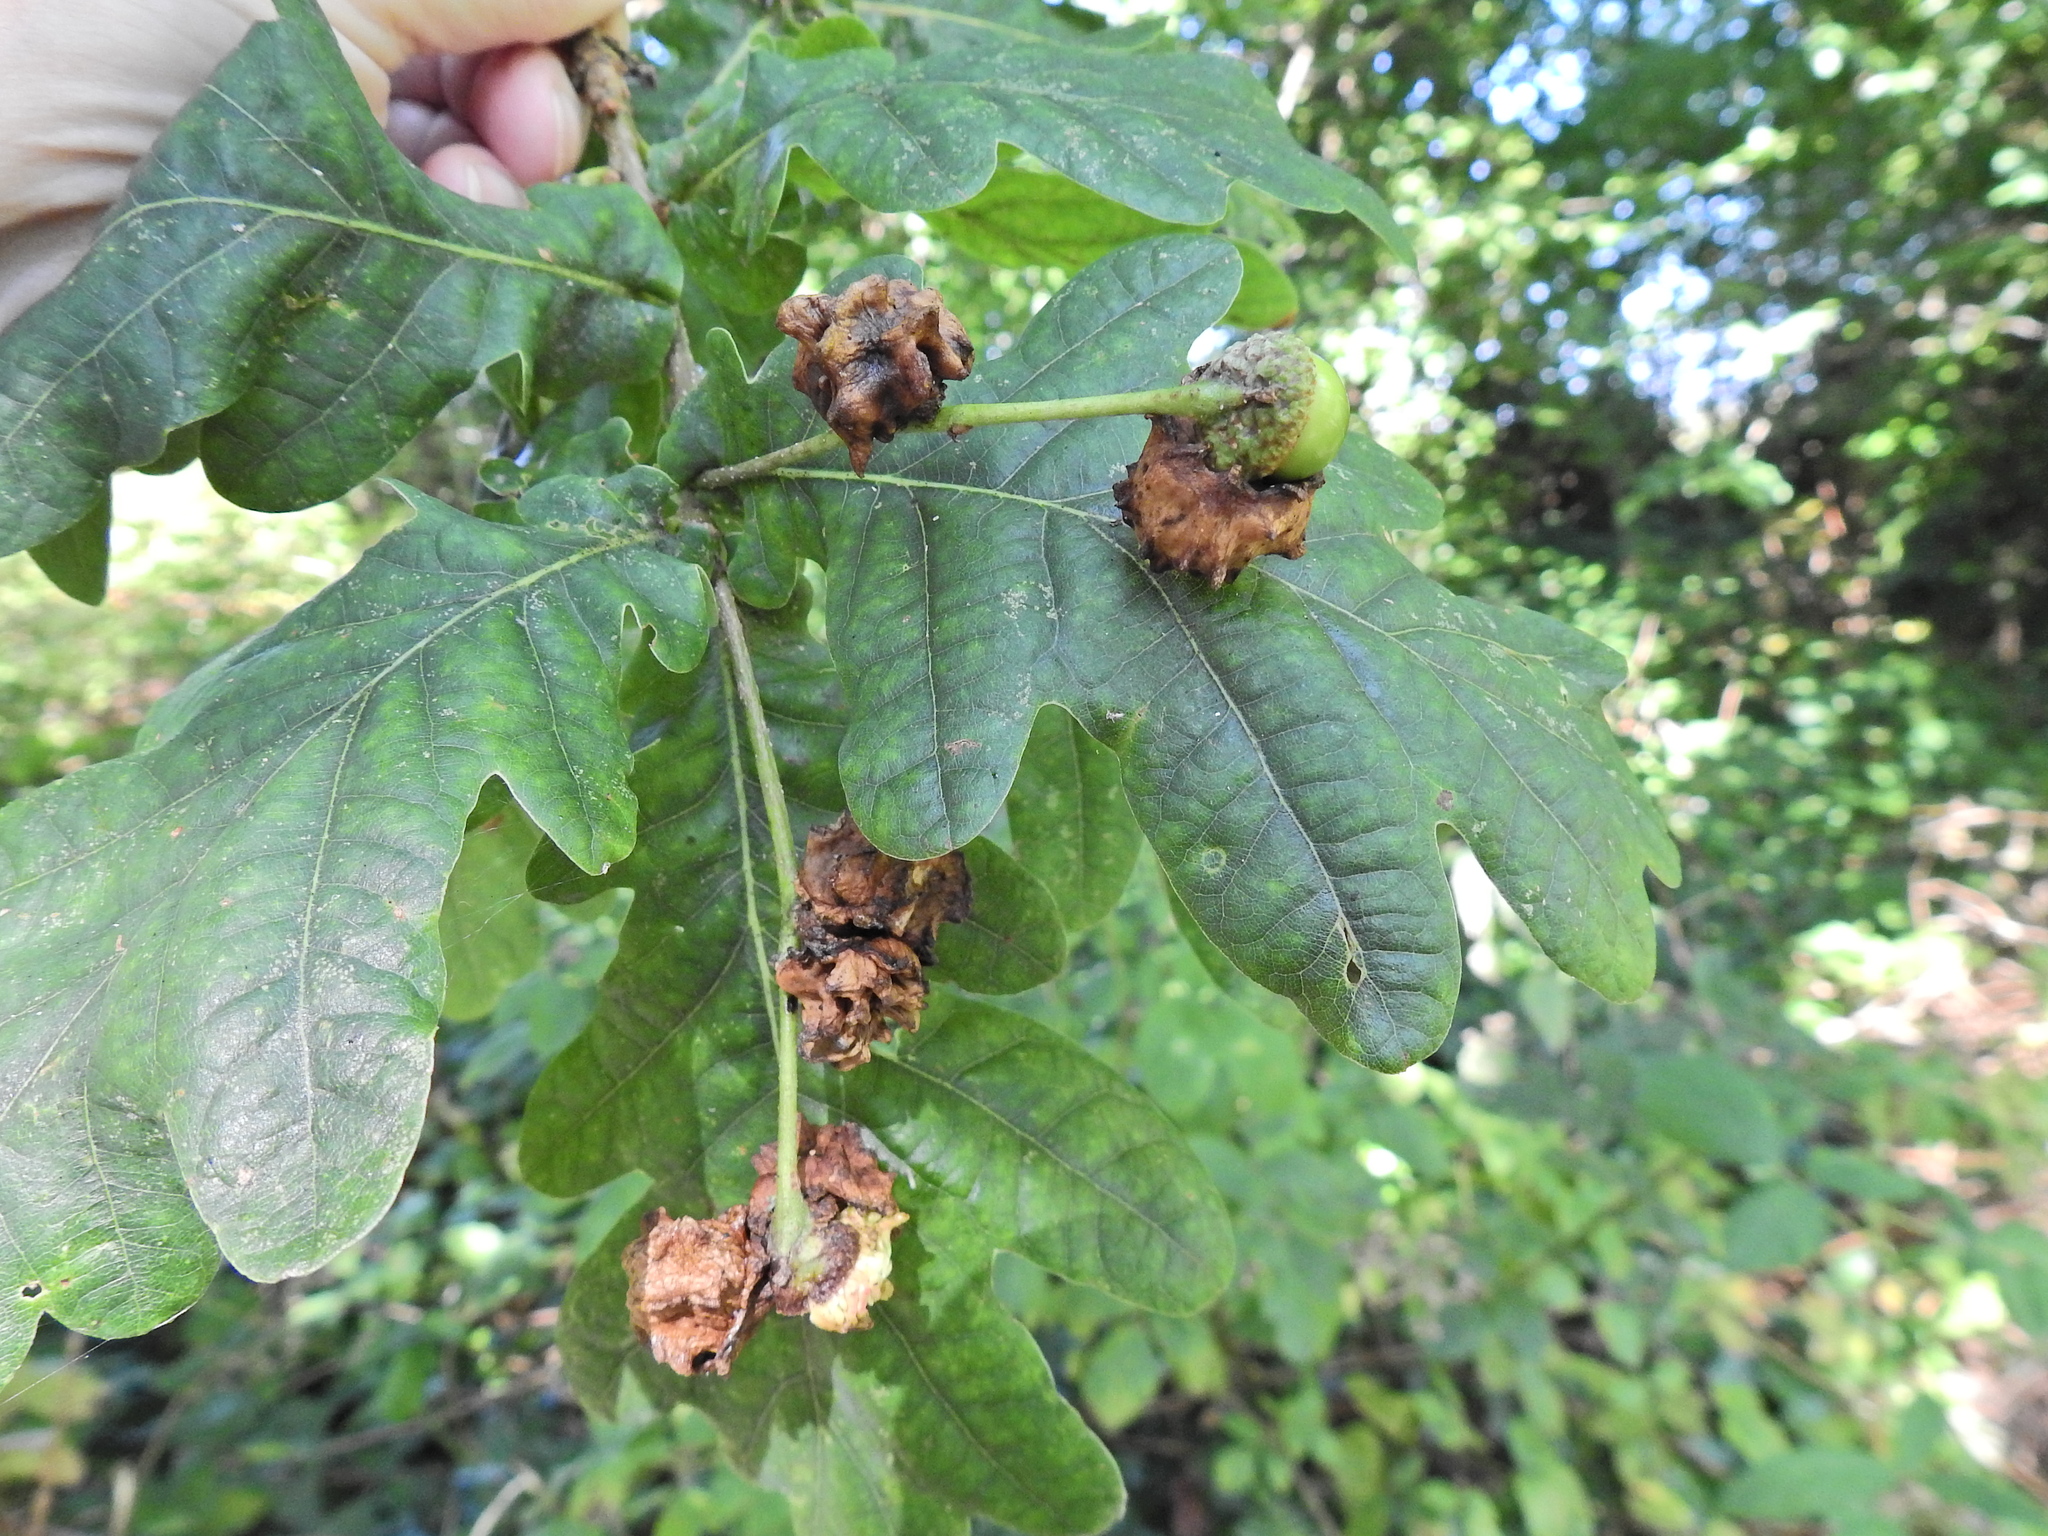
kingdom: Plantae
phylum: Tracheophyta
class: Magnoliopsida
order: Fagales
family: Fagaceae
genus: Quercus
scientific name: Quercus robur
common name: Pedunculate oak
